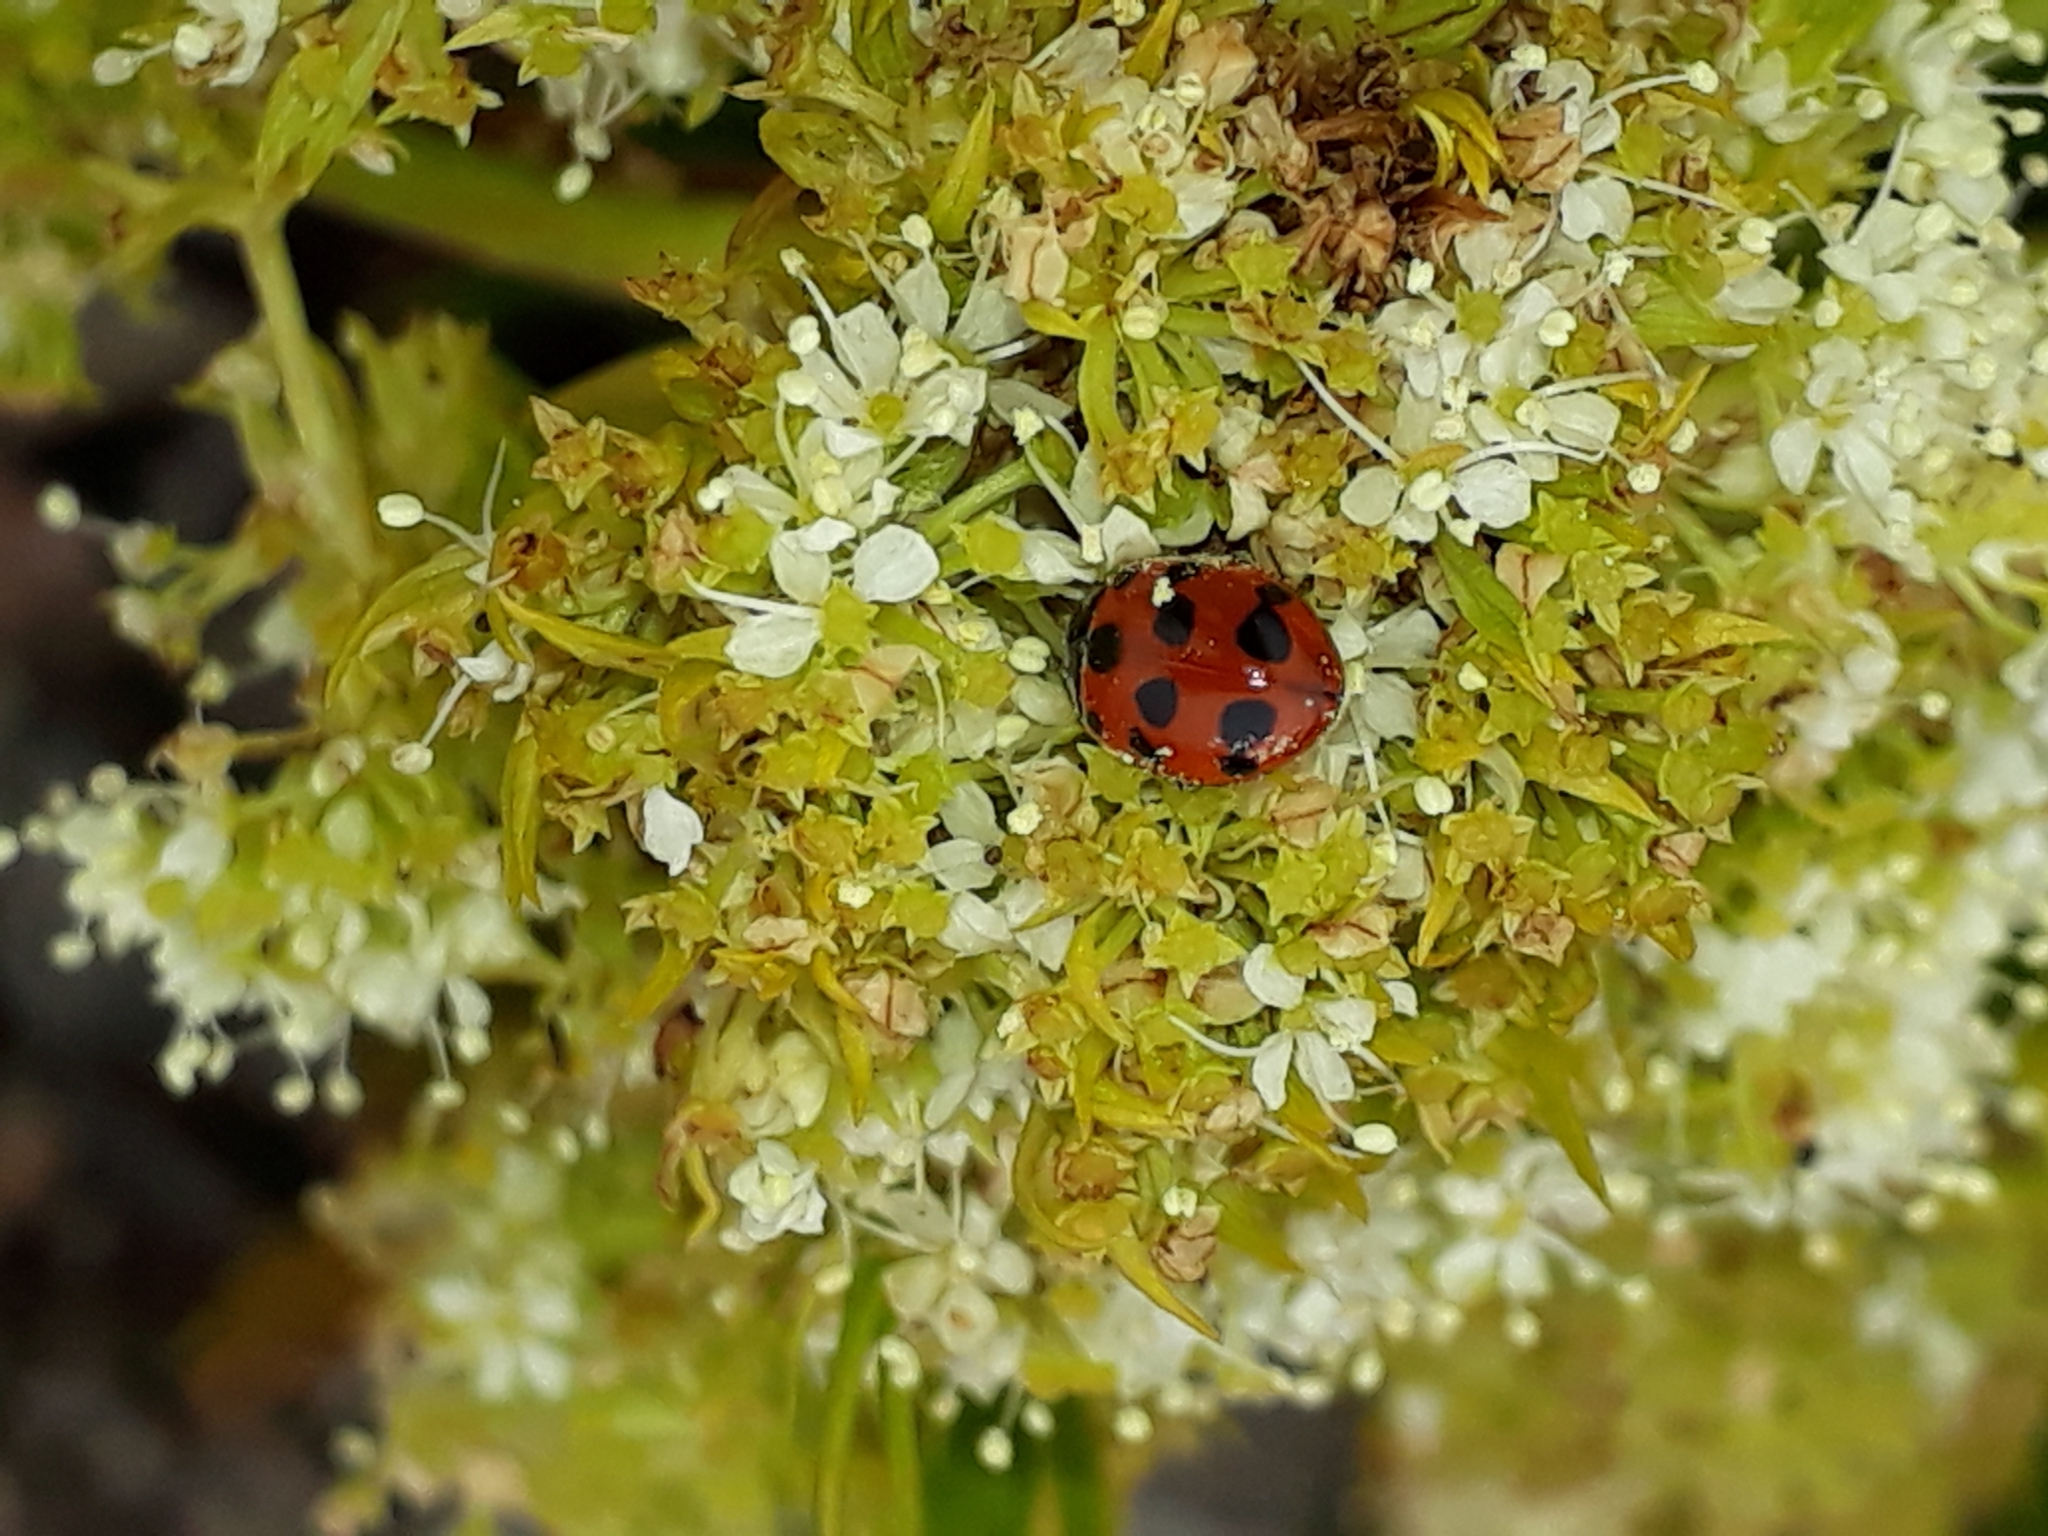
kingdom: Animalia
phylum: Arthropoda
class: Insecta
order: Coleoptera
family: Coccinellidae
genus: Coccinella
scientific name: Coccinella undecimpunctata
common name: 11-spot ladybird
